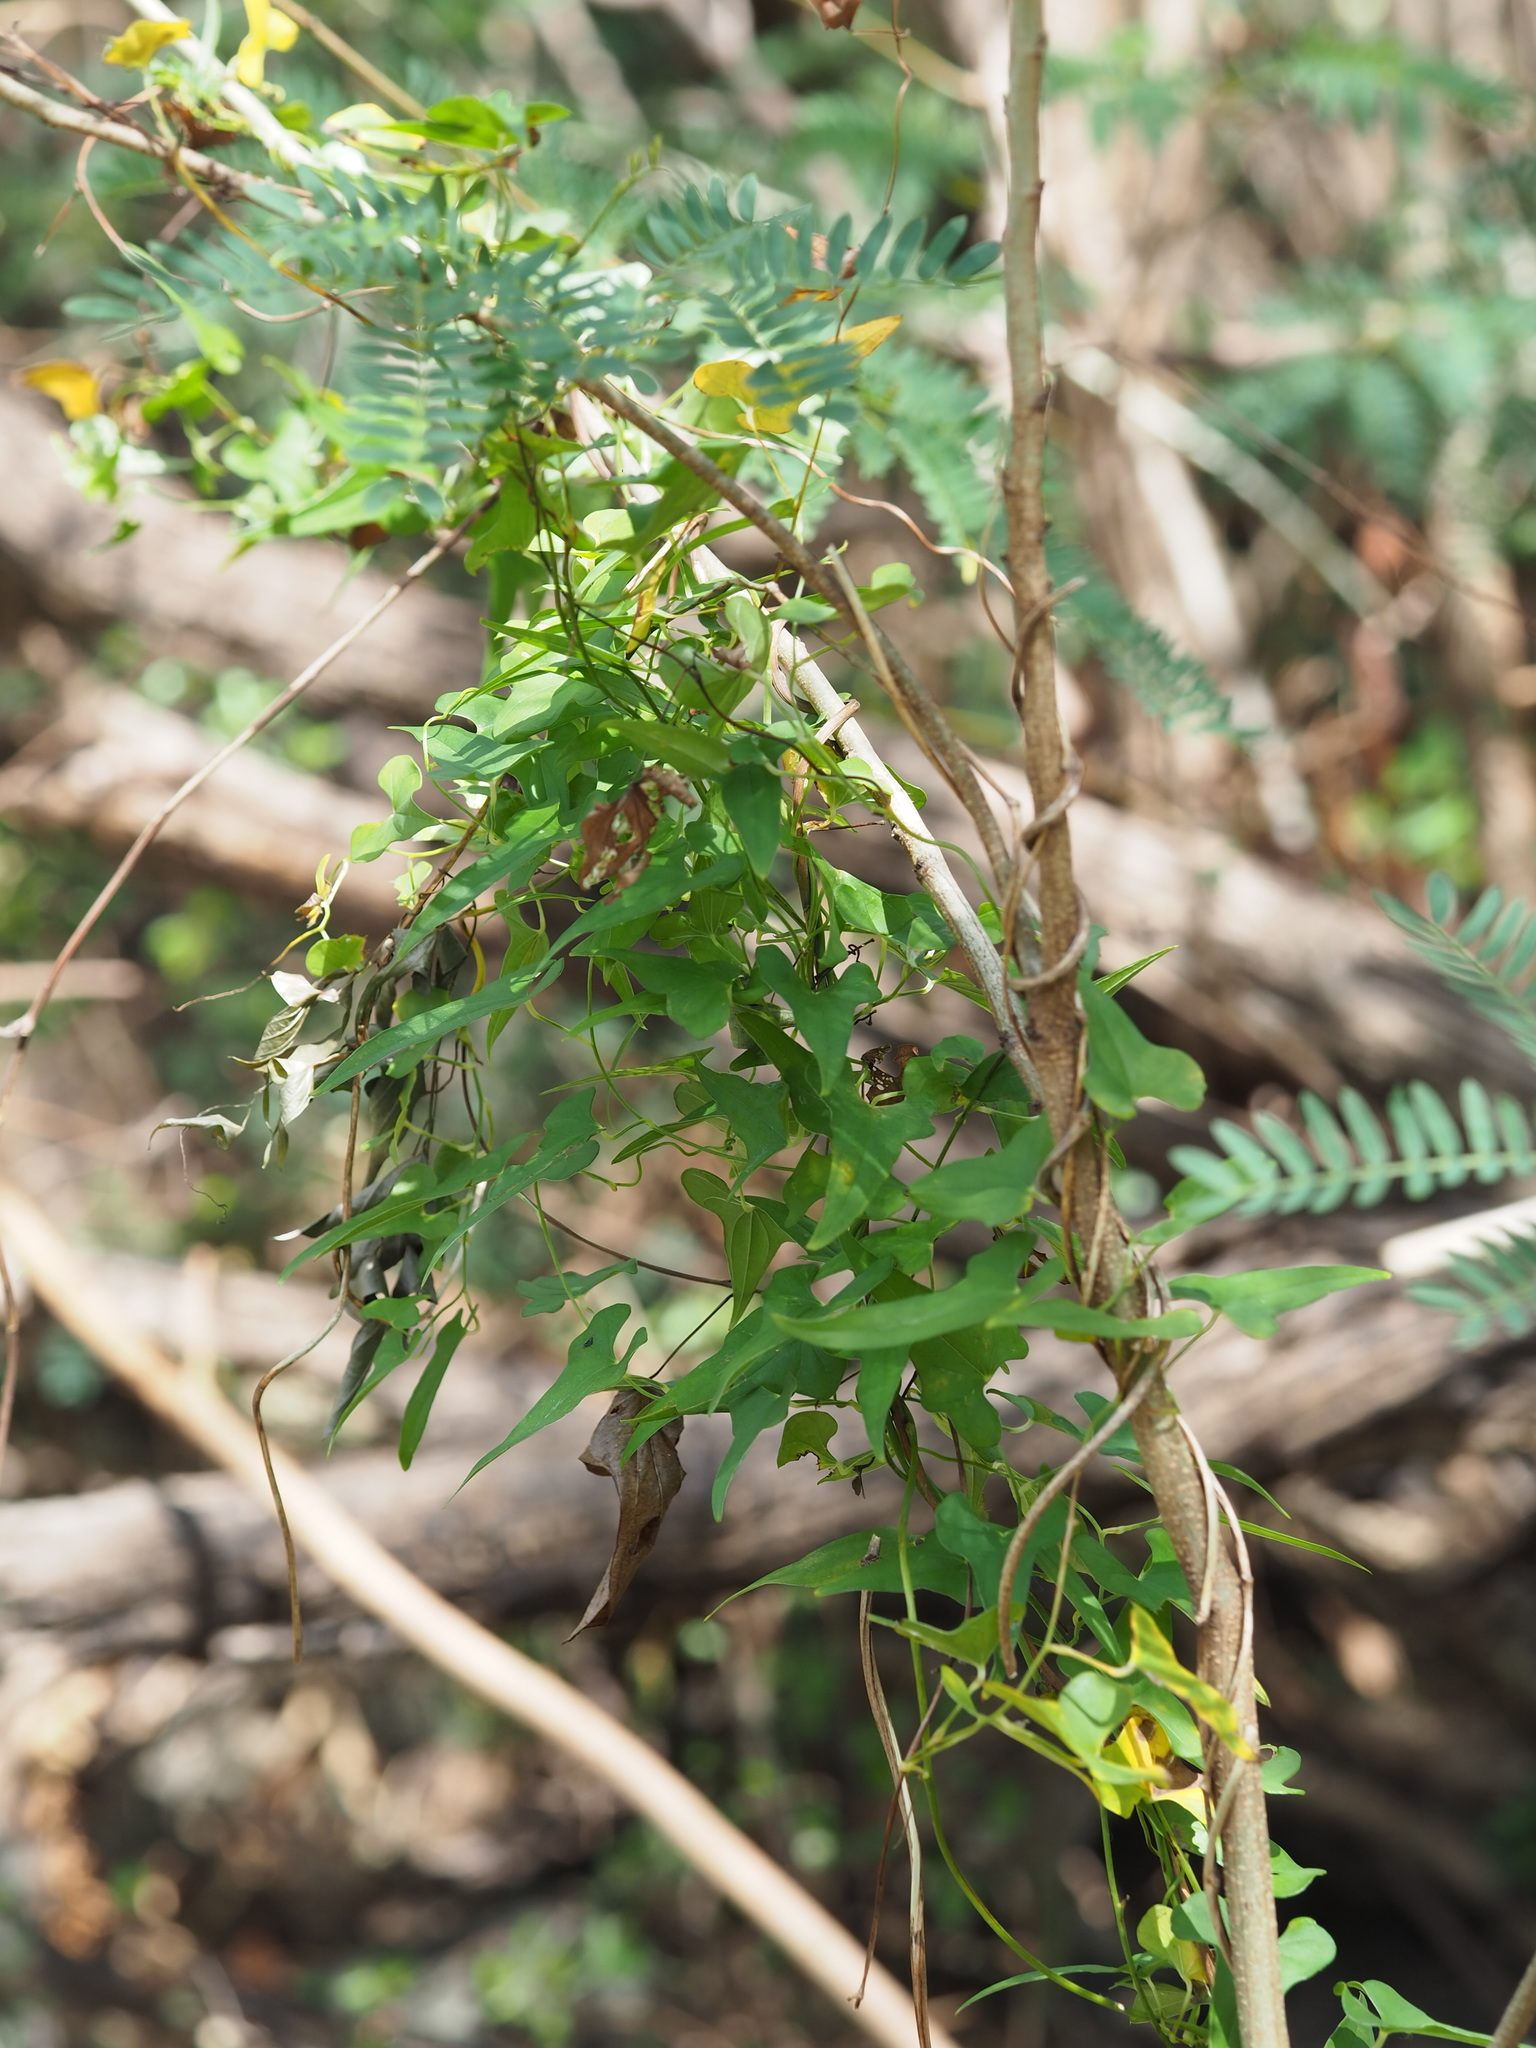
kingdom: Plantae
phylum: Tracheophyta
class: Liliopsida
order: Dioscoreales
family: Dioscoreaceae
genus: Dioscorea
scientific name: Dioscorea polystachya
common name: Chinese yam
